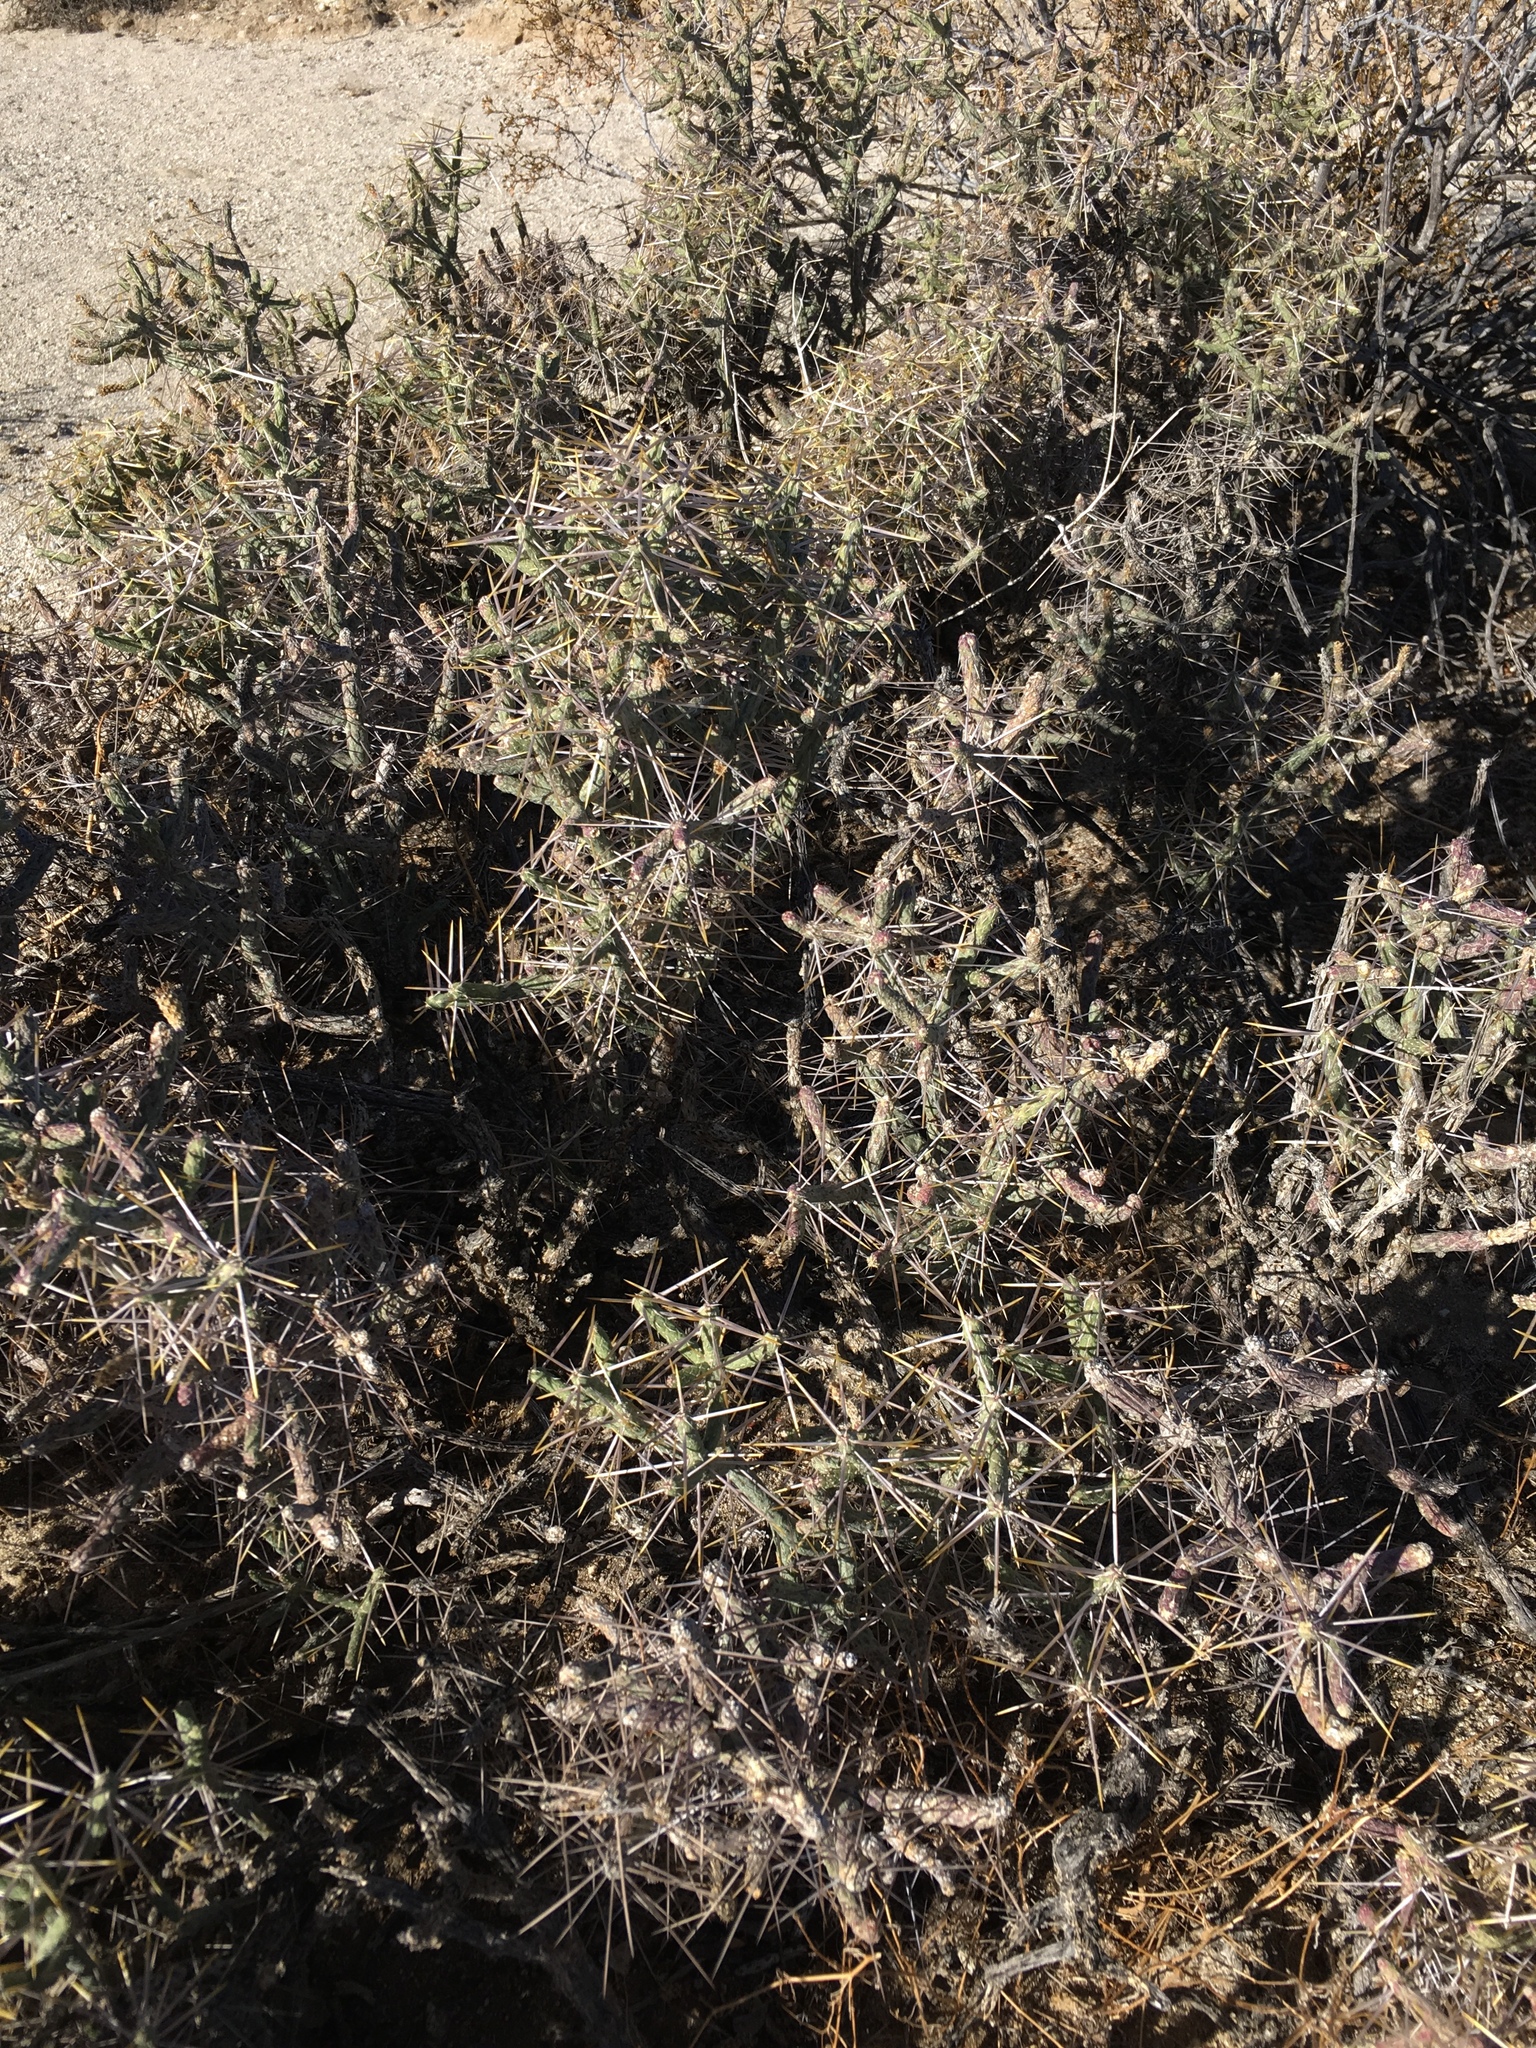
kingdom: Plantae
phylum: Tracheophyta
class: Magnoliopsida
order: Caryophyllales
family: Cactaceae
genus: Cylindropuntia
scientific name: Cylindropuntia ramosissima
